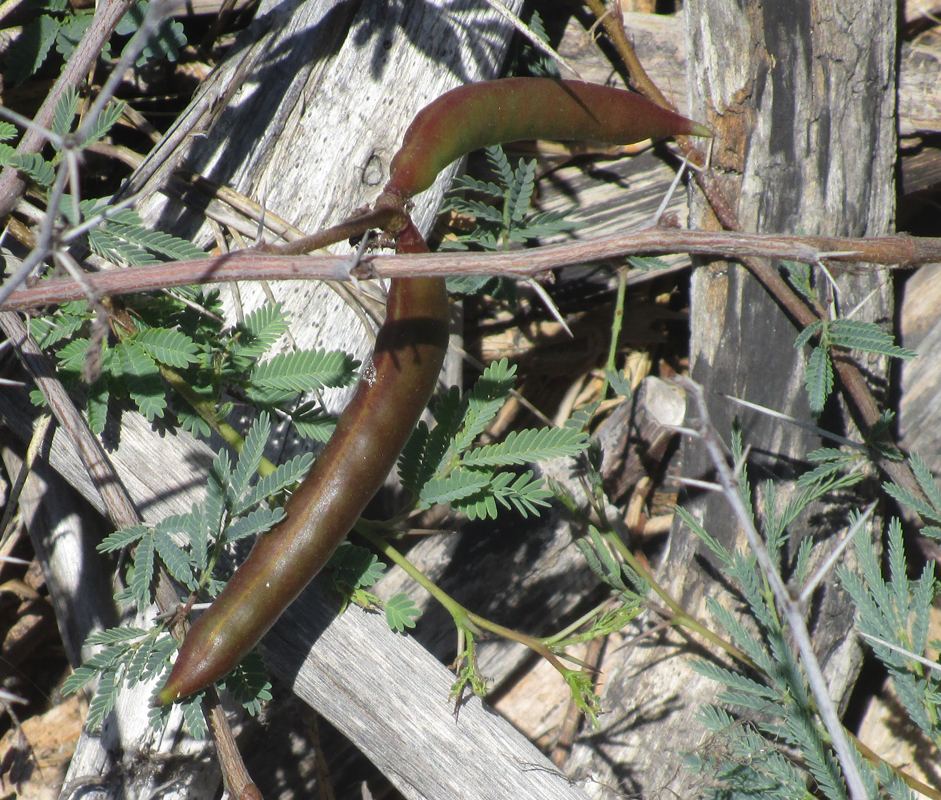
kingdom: Plantae
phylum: Tracheophyta
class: Magnoliopsida
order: Fabales
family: Fabaceae
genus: Vachellia
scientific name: Vachellia farnesiana
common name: Sweet acacia
